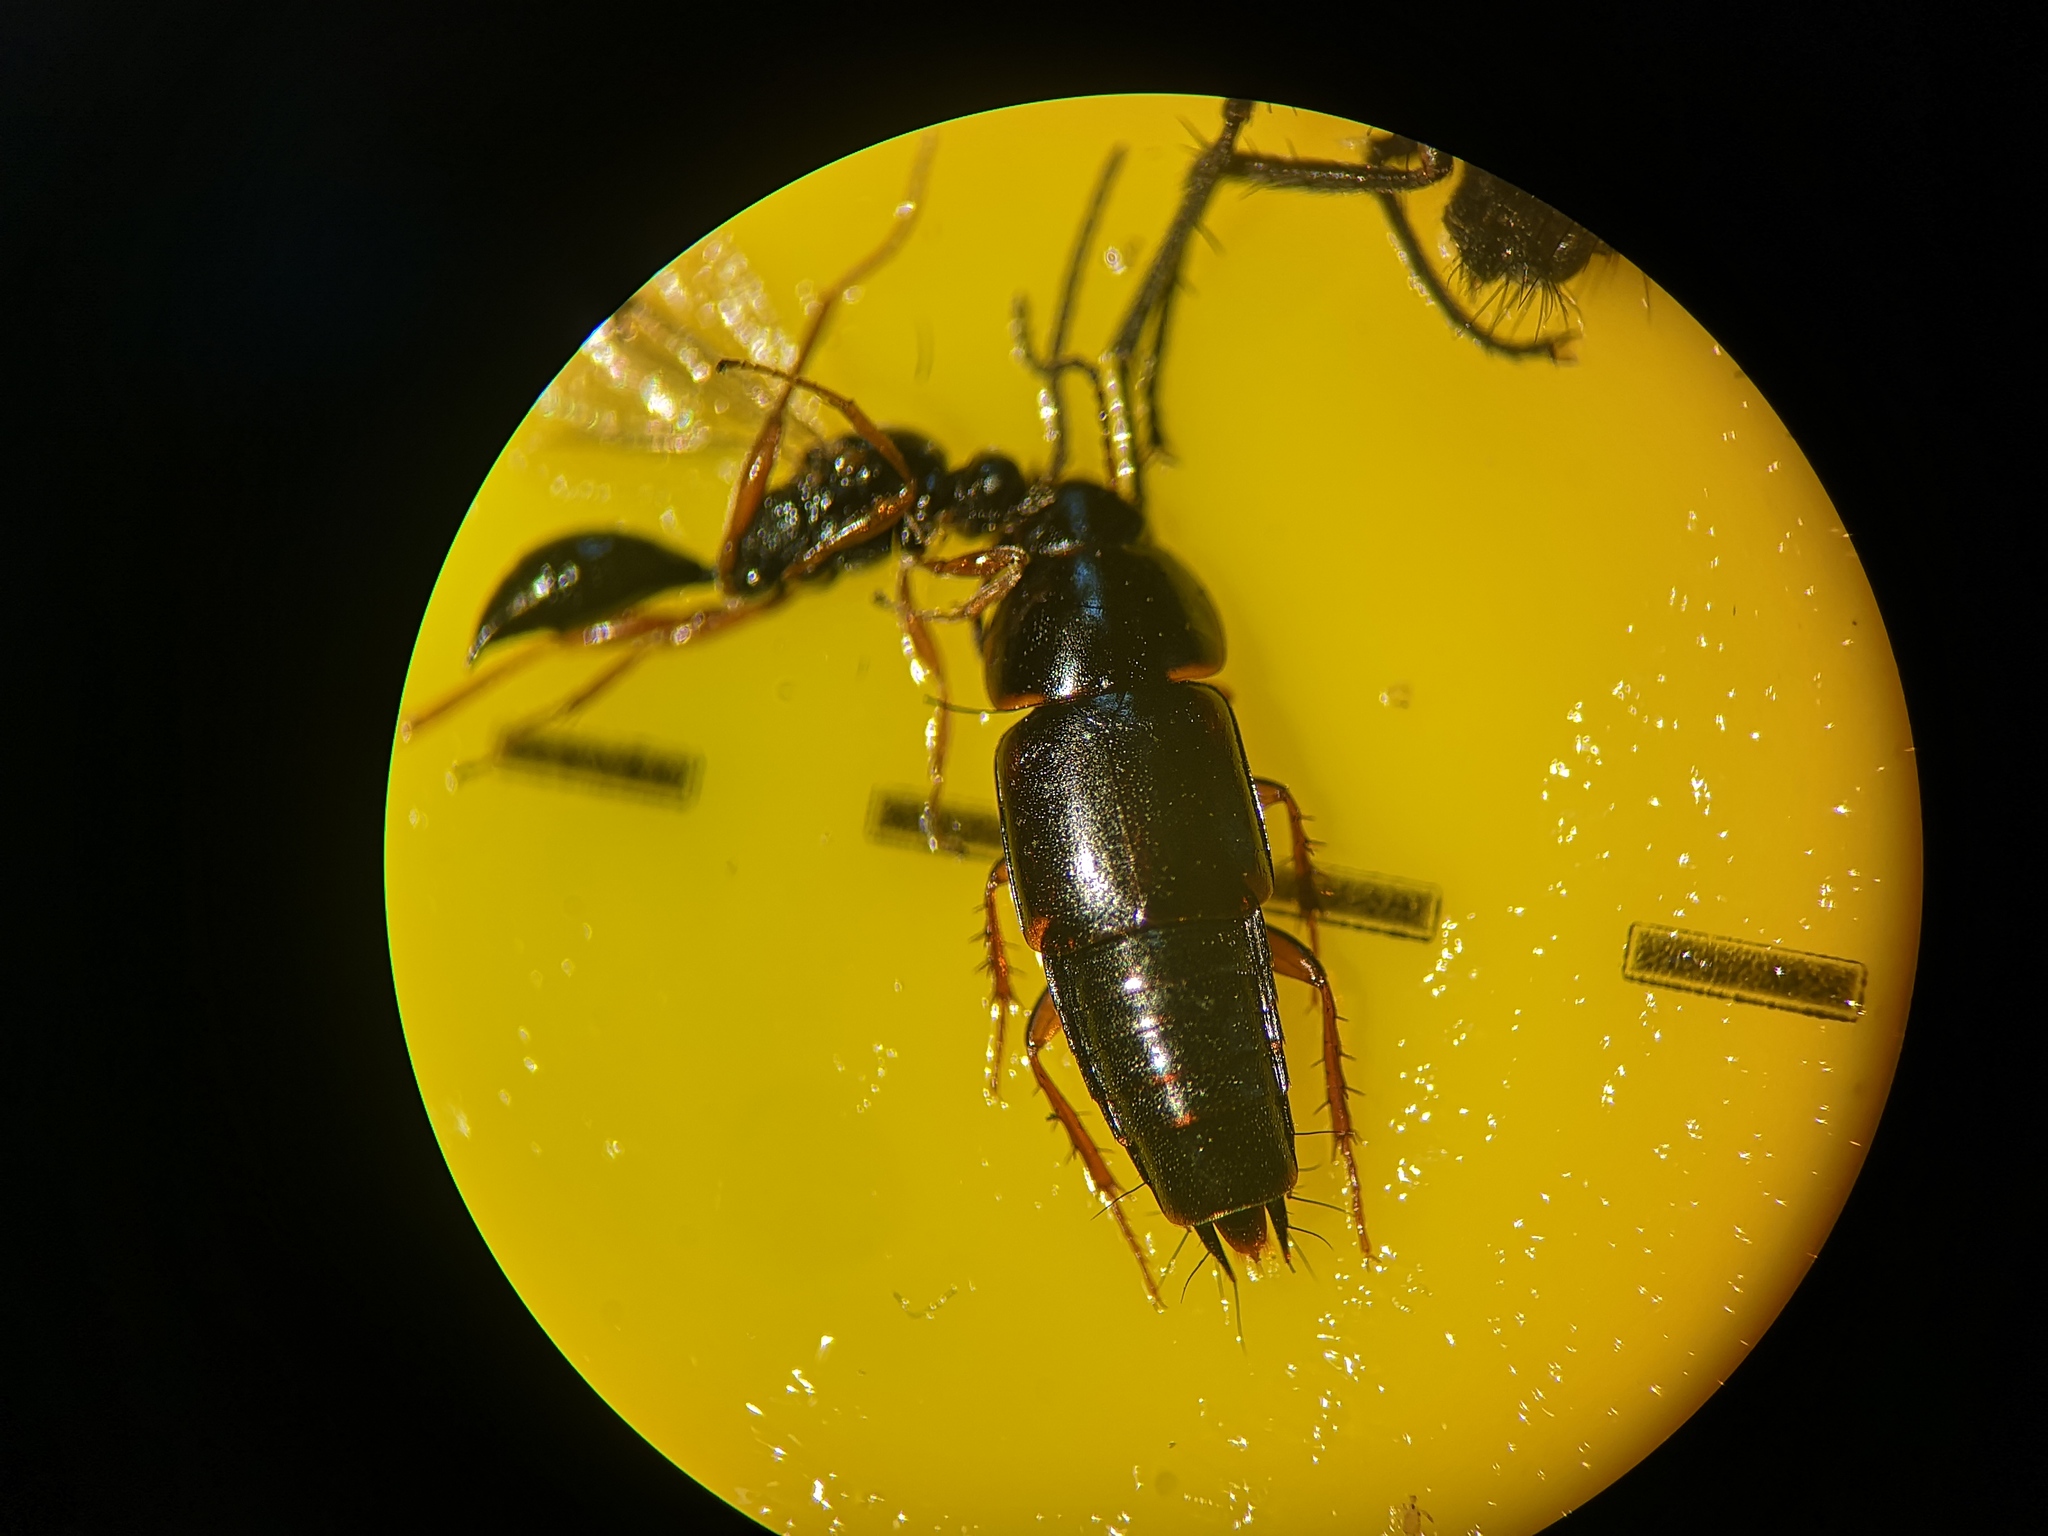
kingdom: Animalia
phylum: Arthropoda
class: Insecta
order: Coleoptera
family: Staphylinidae
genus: Tachinus
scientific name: Tachinus rufipes
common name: Rove beetle
